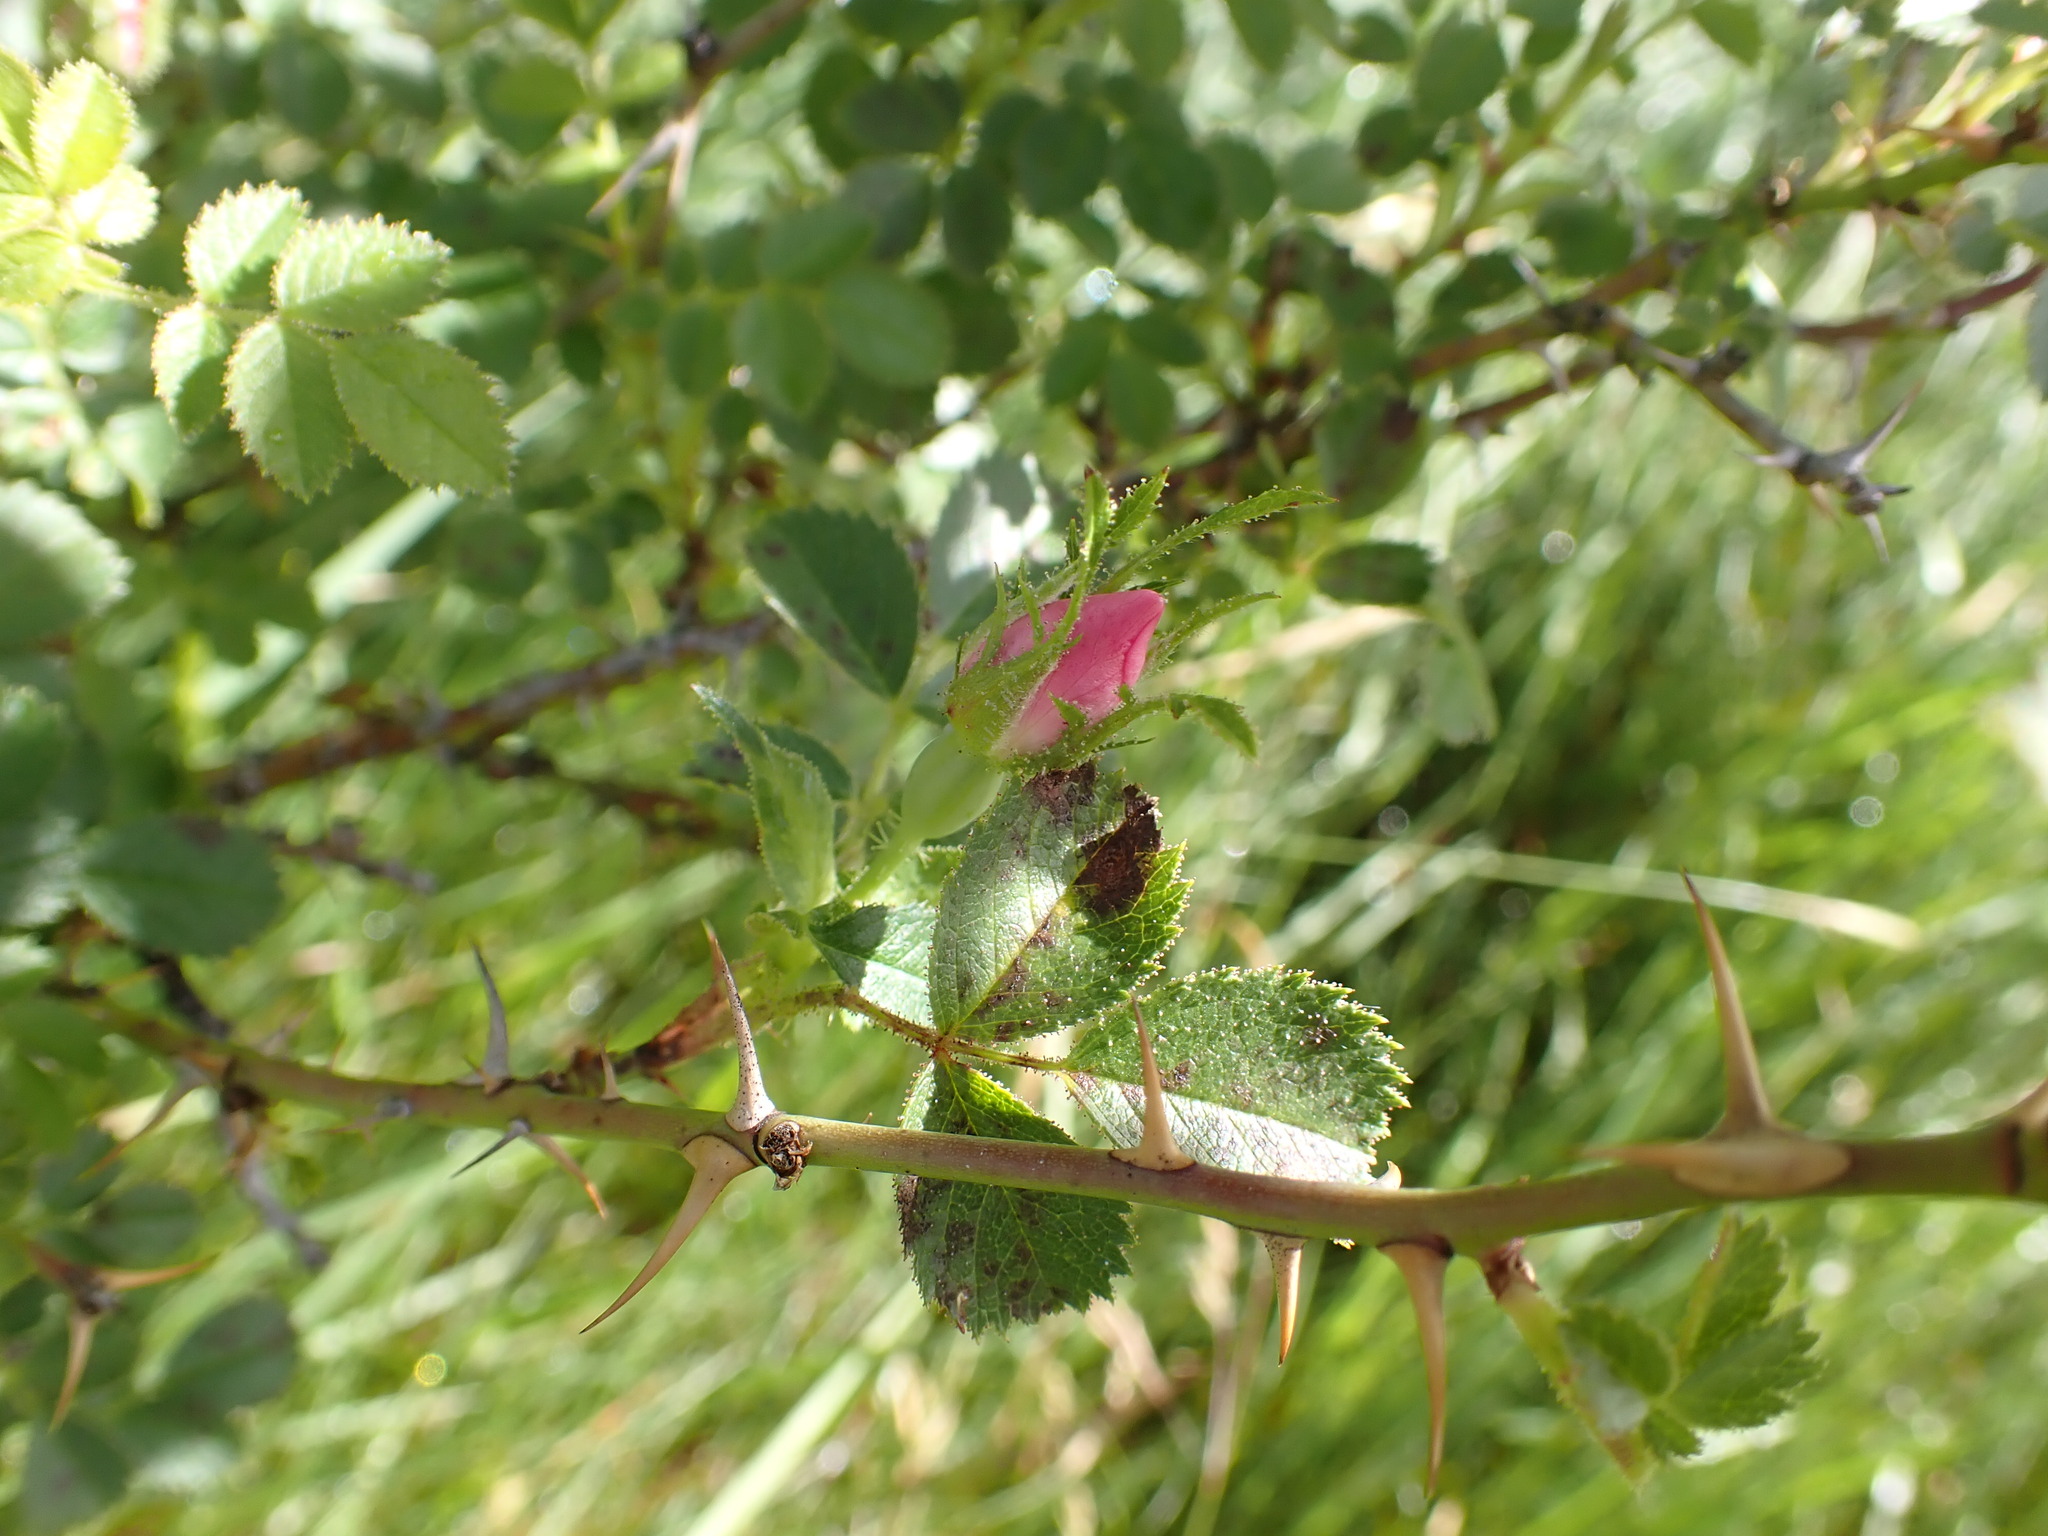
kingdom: Plantae
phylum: Tracheophyta
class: Magnoliopsida
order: Rosales
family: Rosaceae
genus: Rosa
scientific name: Rosa rubiginosa
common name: Sweet-briar
